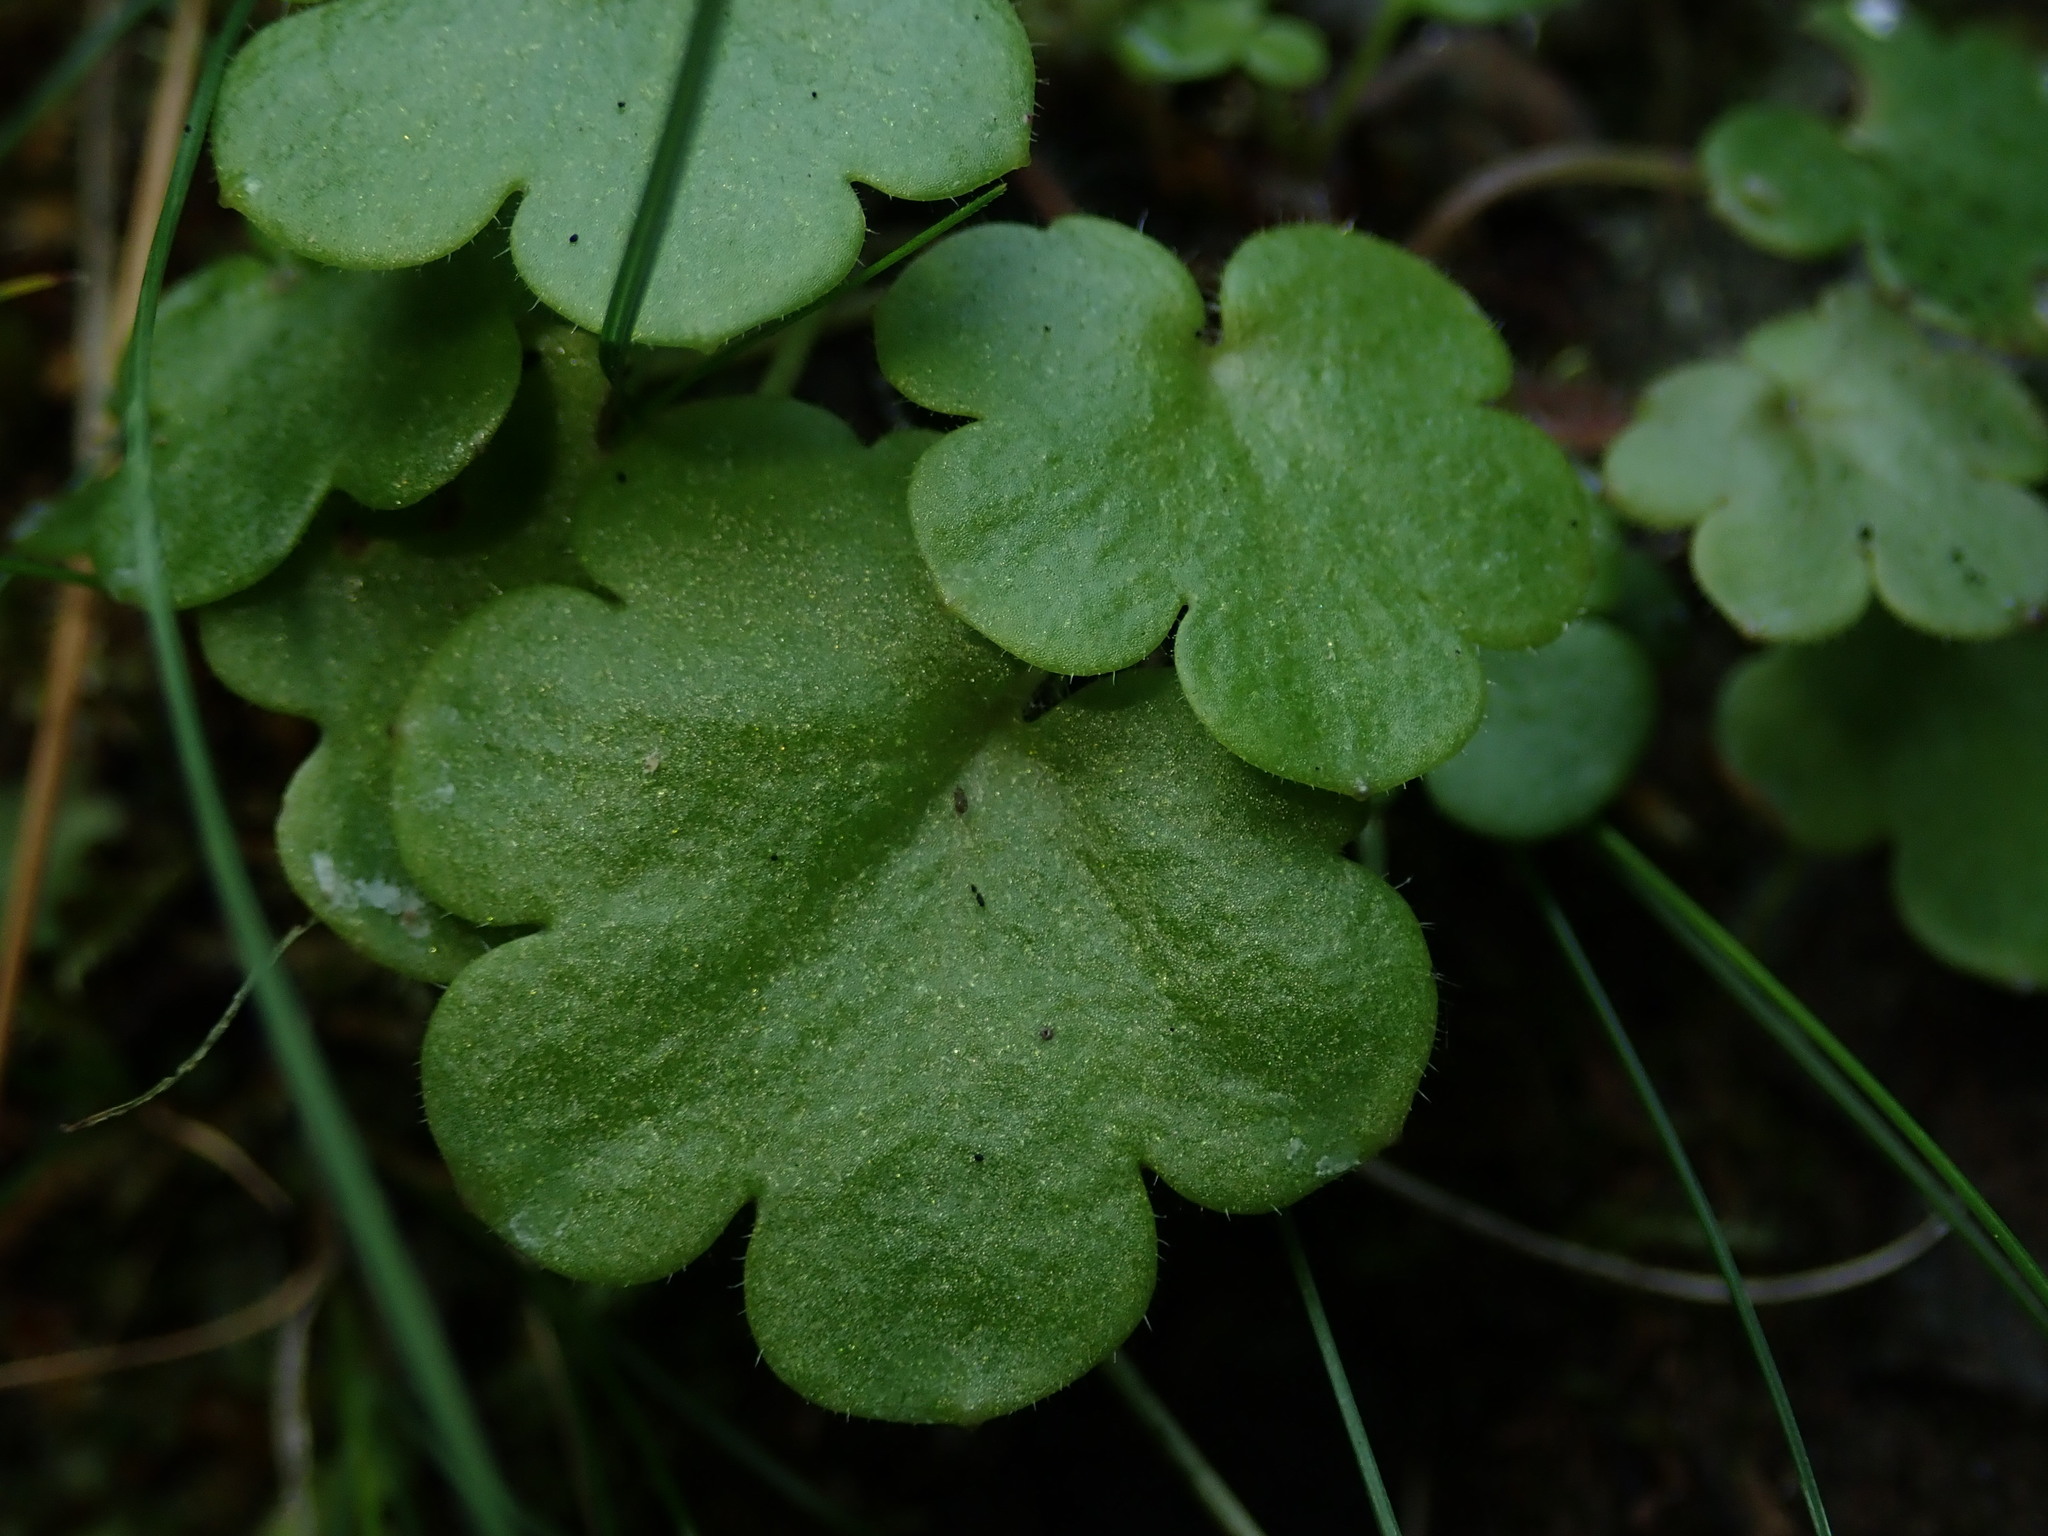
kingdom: Plantae
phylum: Tracheophyta
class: Magnoliopsida
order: Boraginales
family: Hydrophyllaceae
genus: Romanzoffia
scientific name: Romanzoffia sitchensis
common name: Sitka mistmaid
